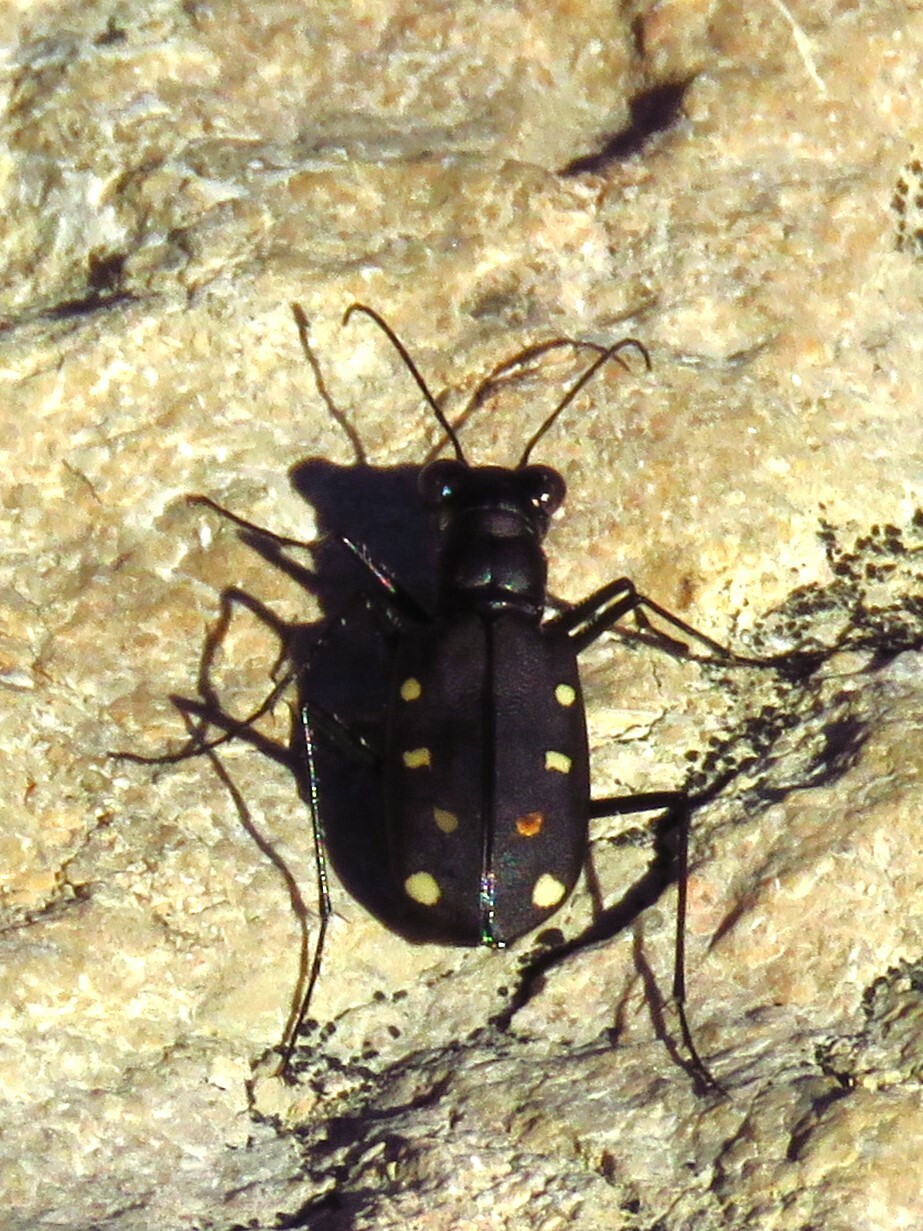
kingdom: Animalia
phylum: Arthropoda
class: Insecta
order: Coleoptera
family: Carabidae
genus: Cicindela
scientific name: Cicindela ocellata
